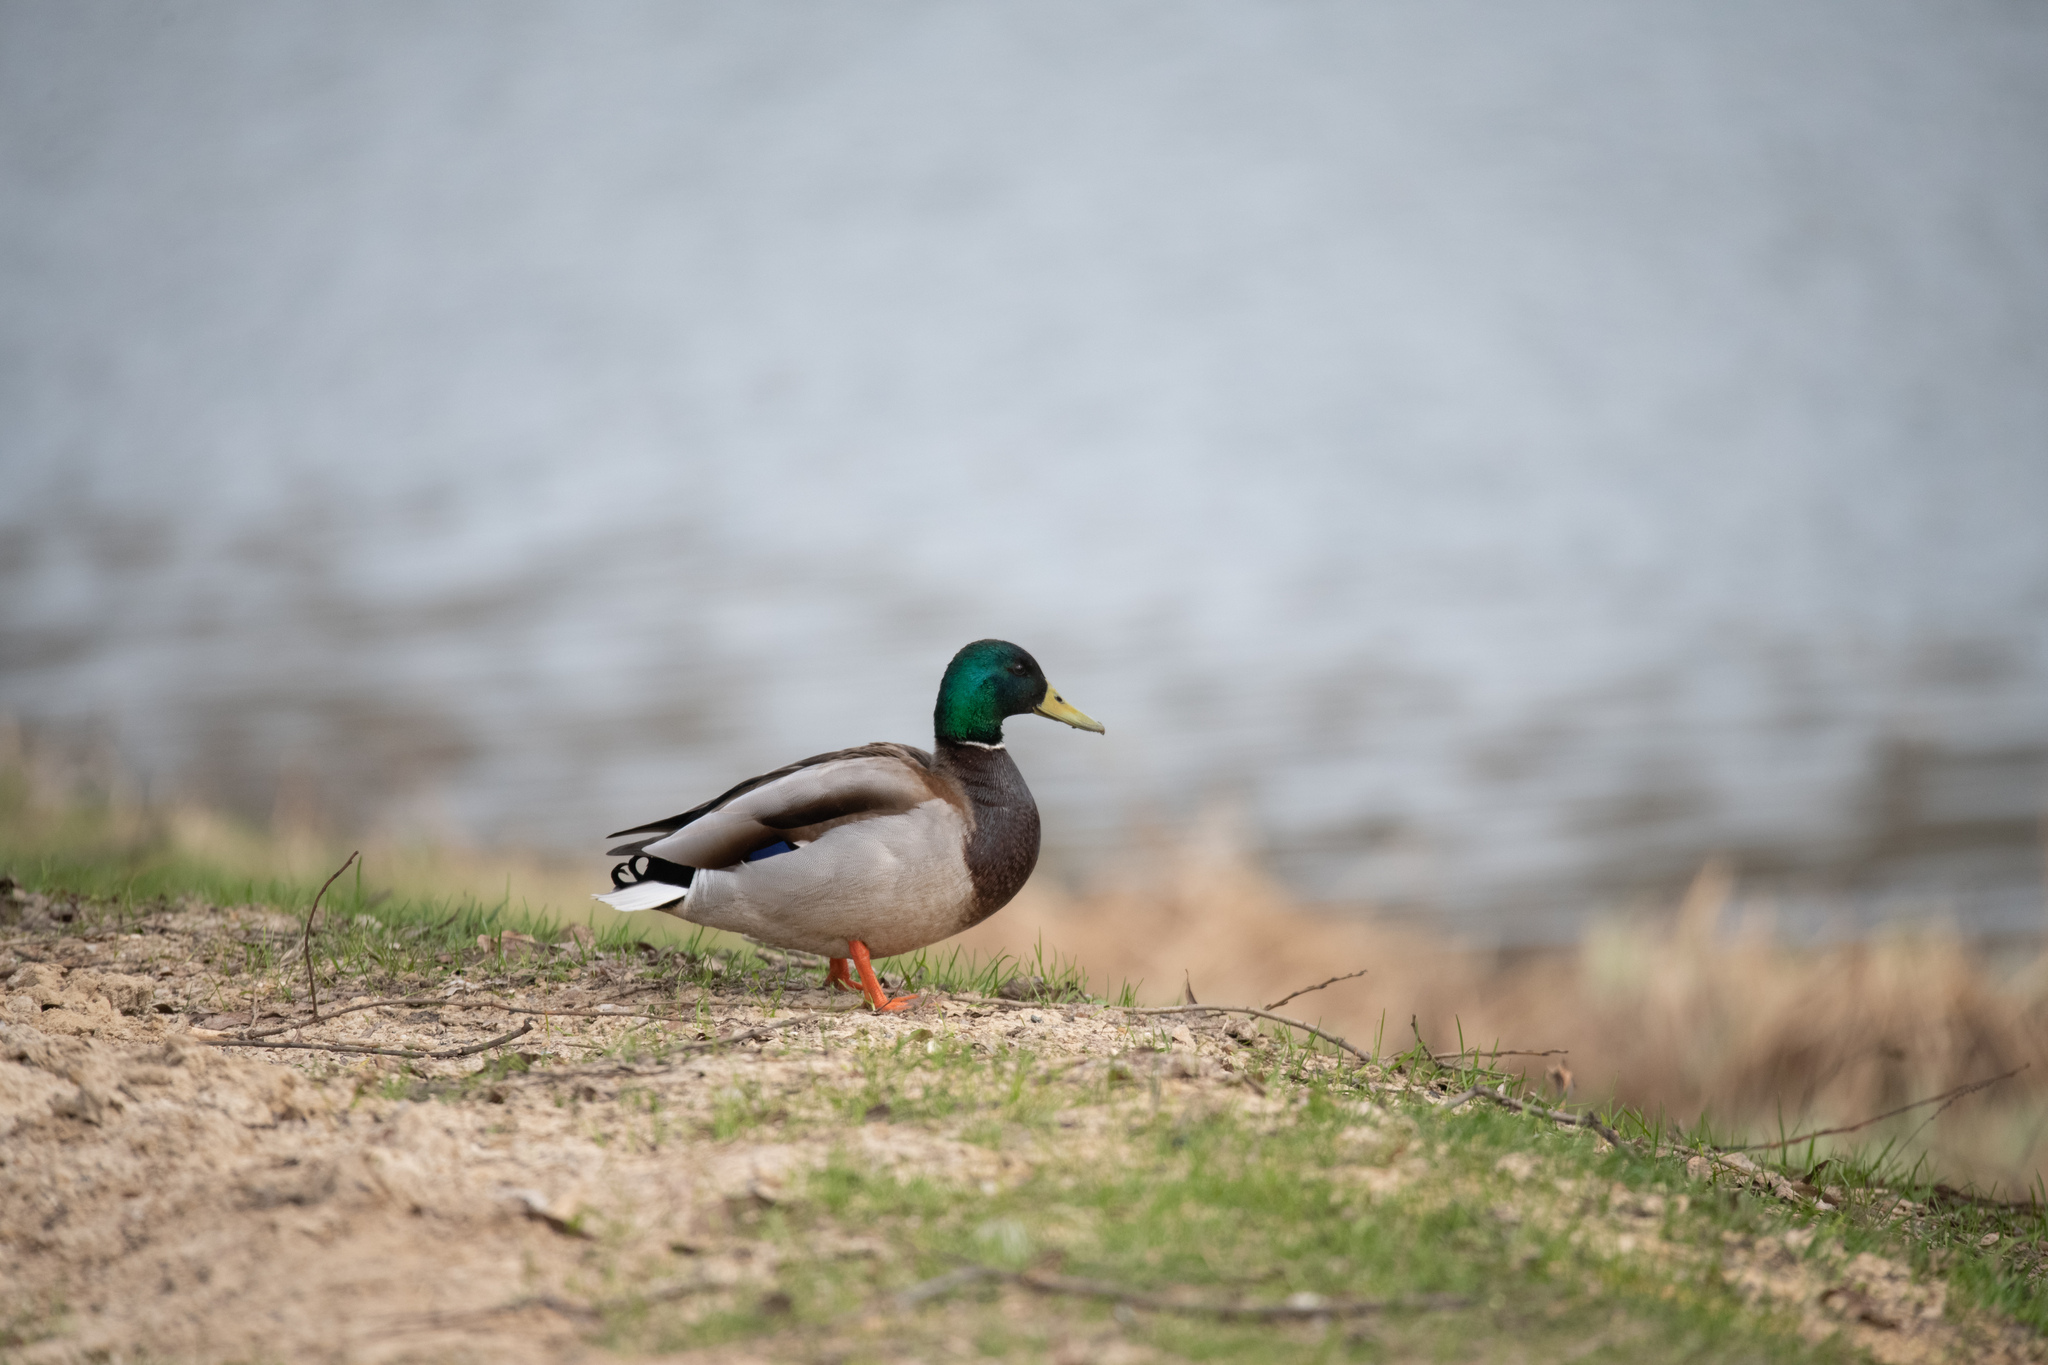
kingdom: Animalia
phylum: Chordata
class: Aves
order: Anseriformes
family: Anatidae
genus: Anas
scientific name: Anas platyrhynchos
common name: Mallard
